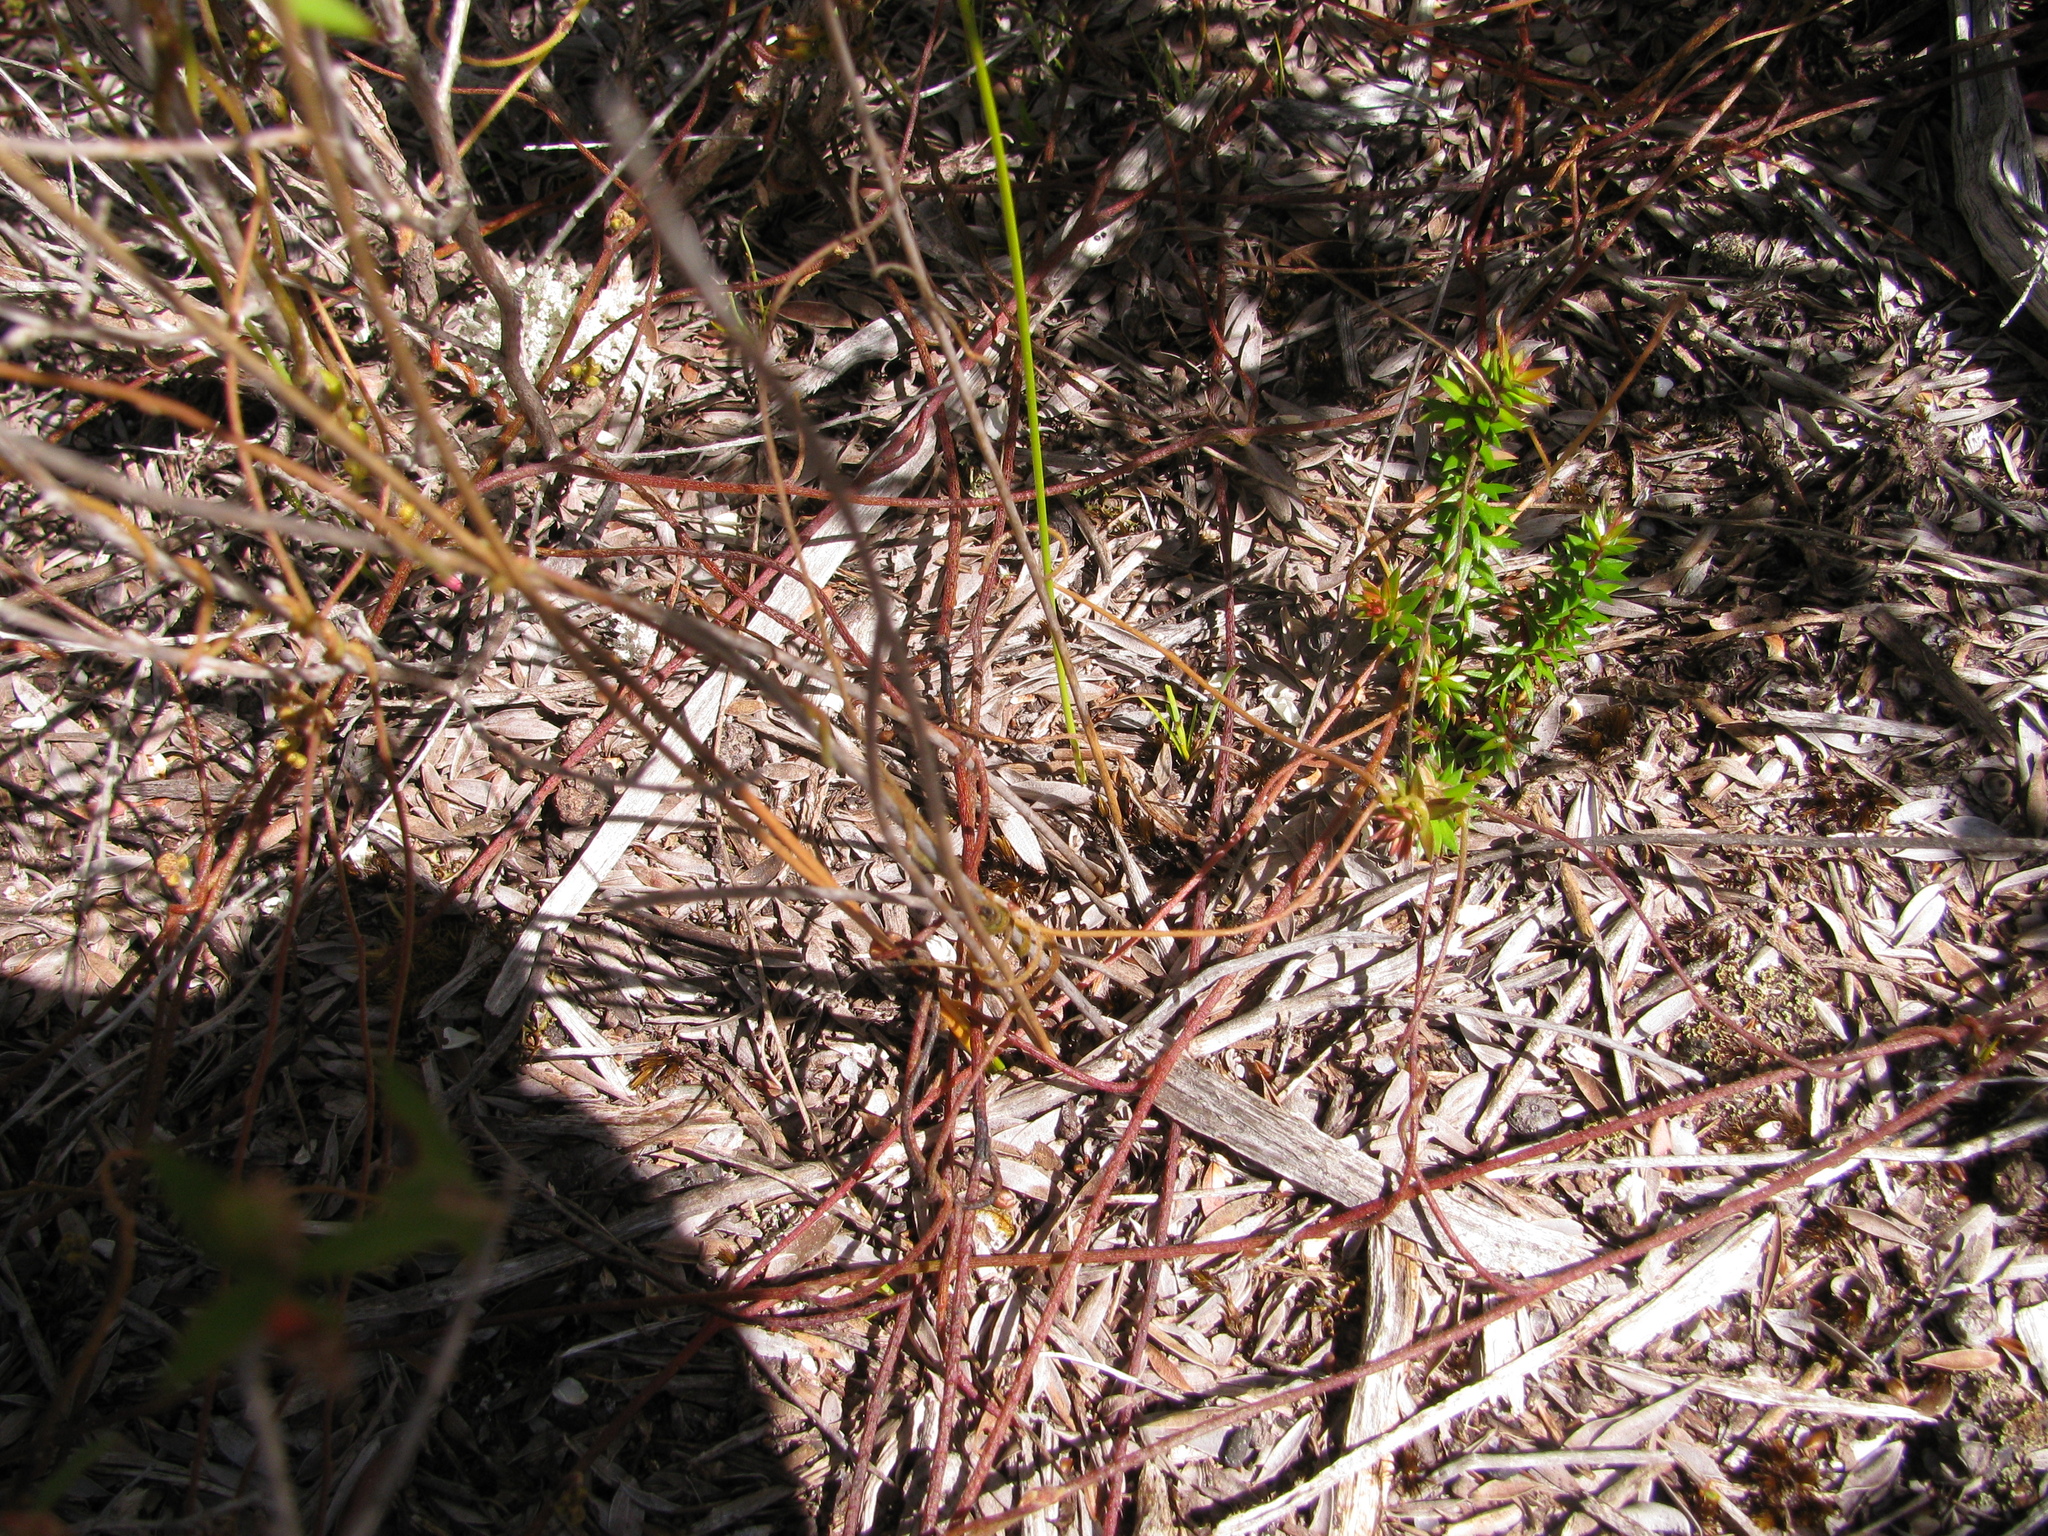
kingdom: Plantae
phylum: Tracheophyta
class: Magnoliopsida
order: Laurales
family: Lauraceae
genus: Cassytha
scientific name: Cassytha pubescens
